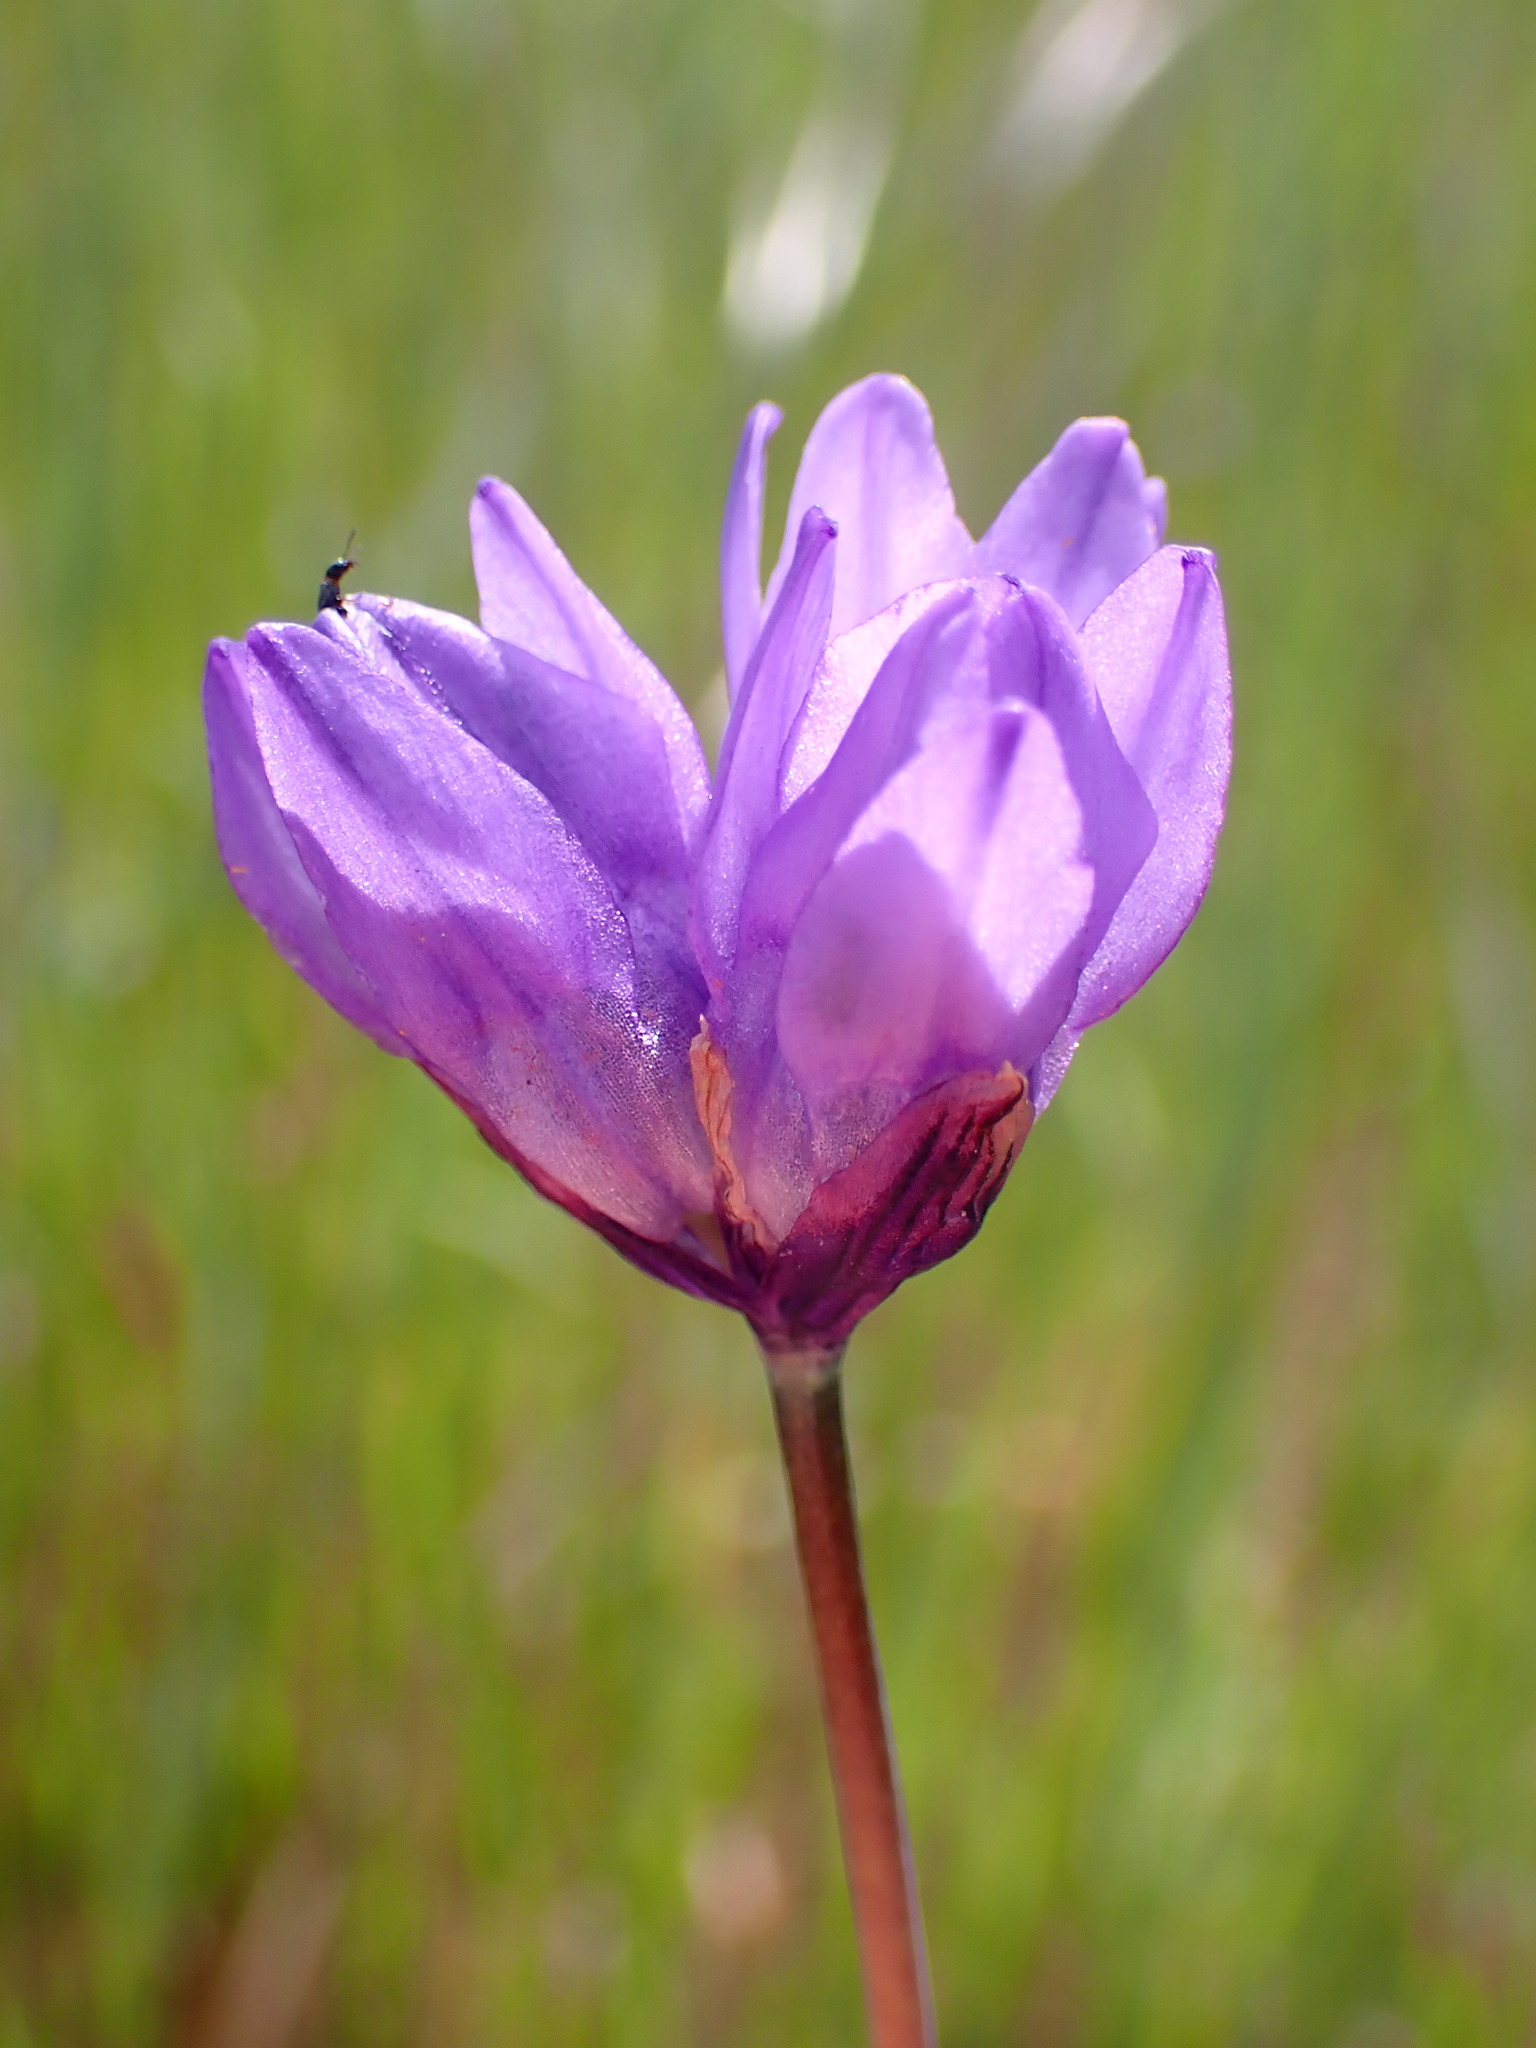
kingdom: Plantae
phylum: Tracheophyta
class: Liliopsida
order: Asparagales
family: Asparagaceae
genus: Dipterostemon
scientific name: Dipterostemon capitatus
